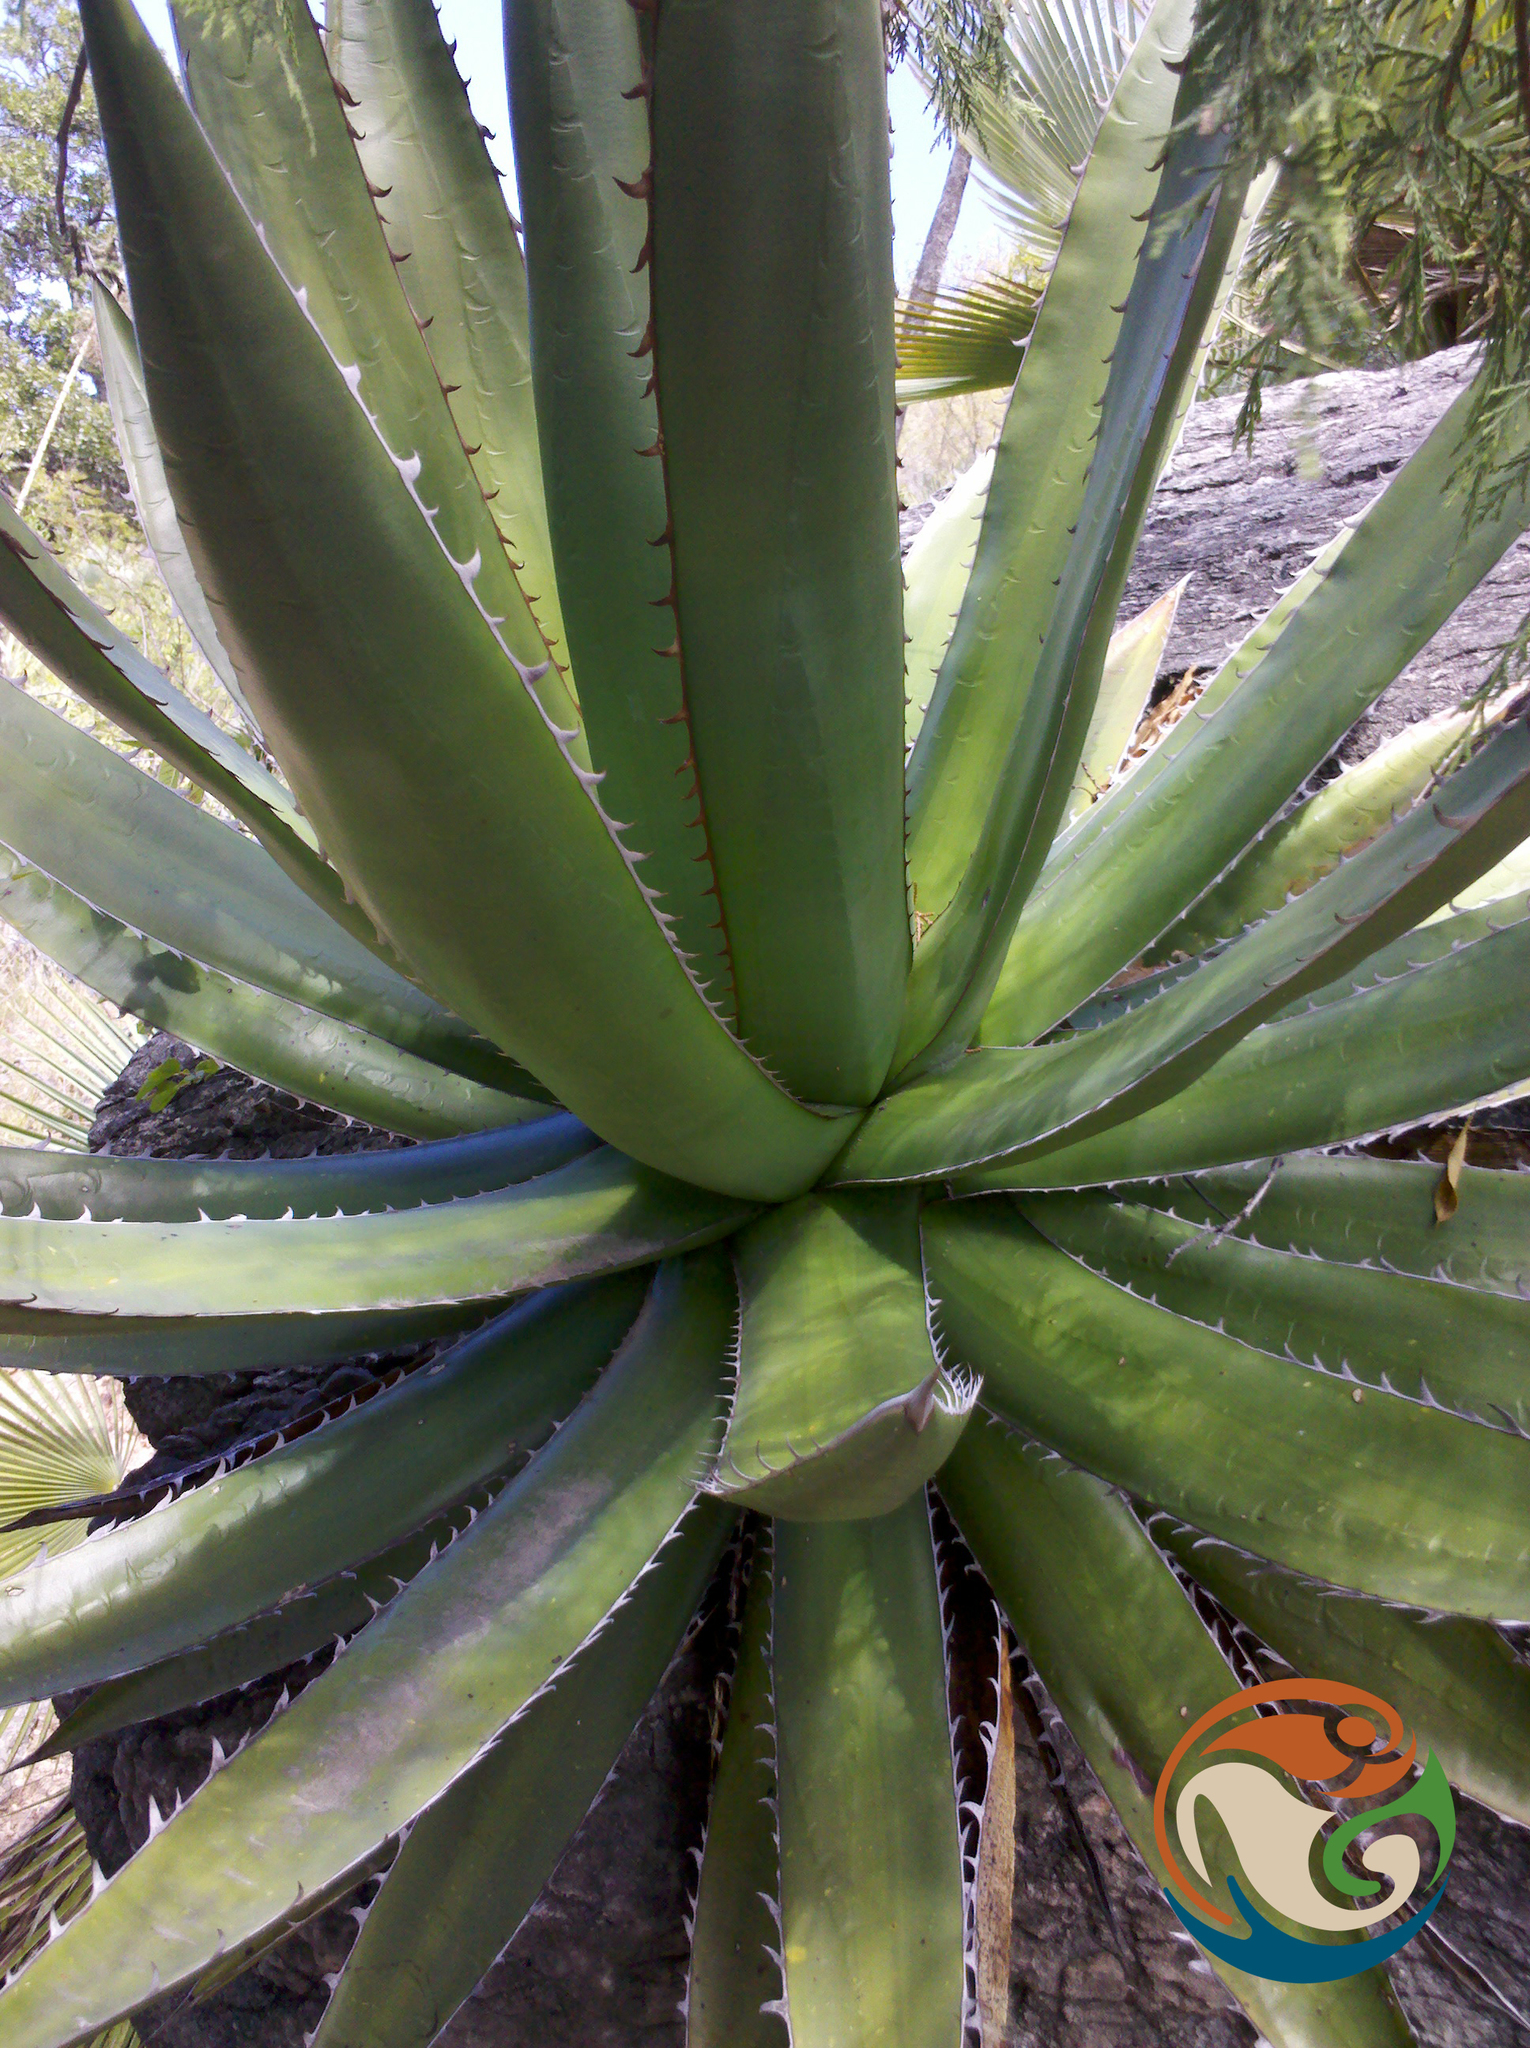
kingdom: Plantae
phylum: Tracheophyta
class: Liliopsida
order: Asparagales
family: Asparagaceae
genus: Agave
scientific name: Agave angustiarum
